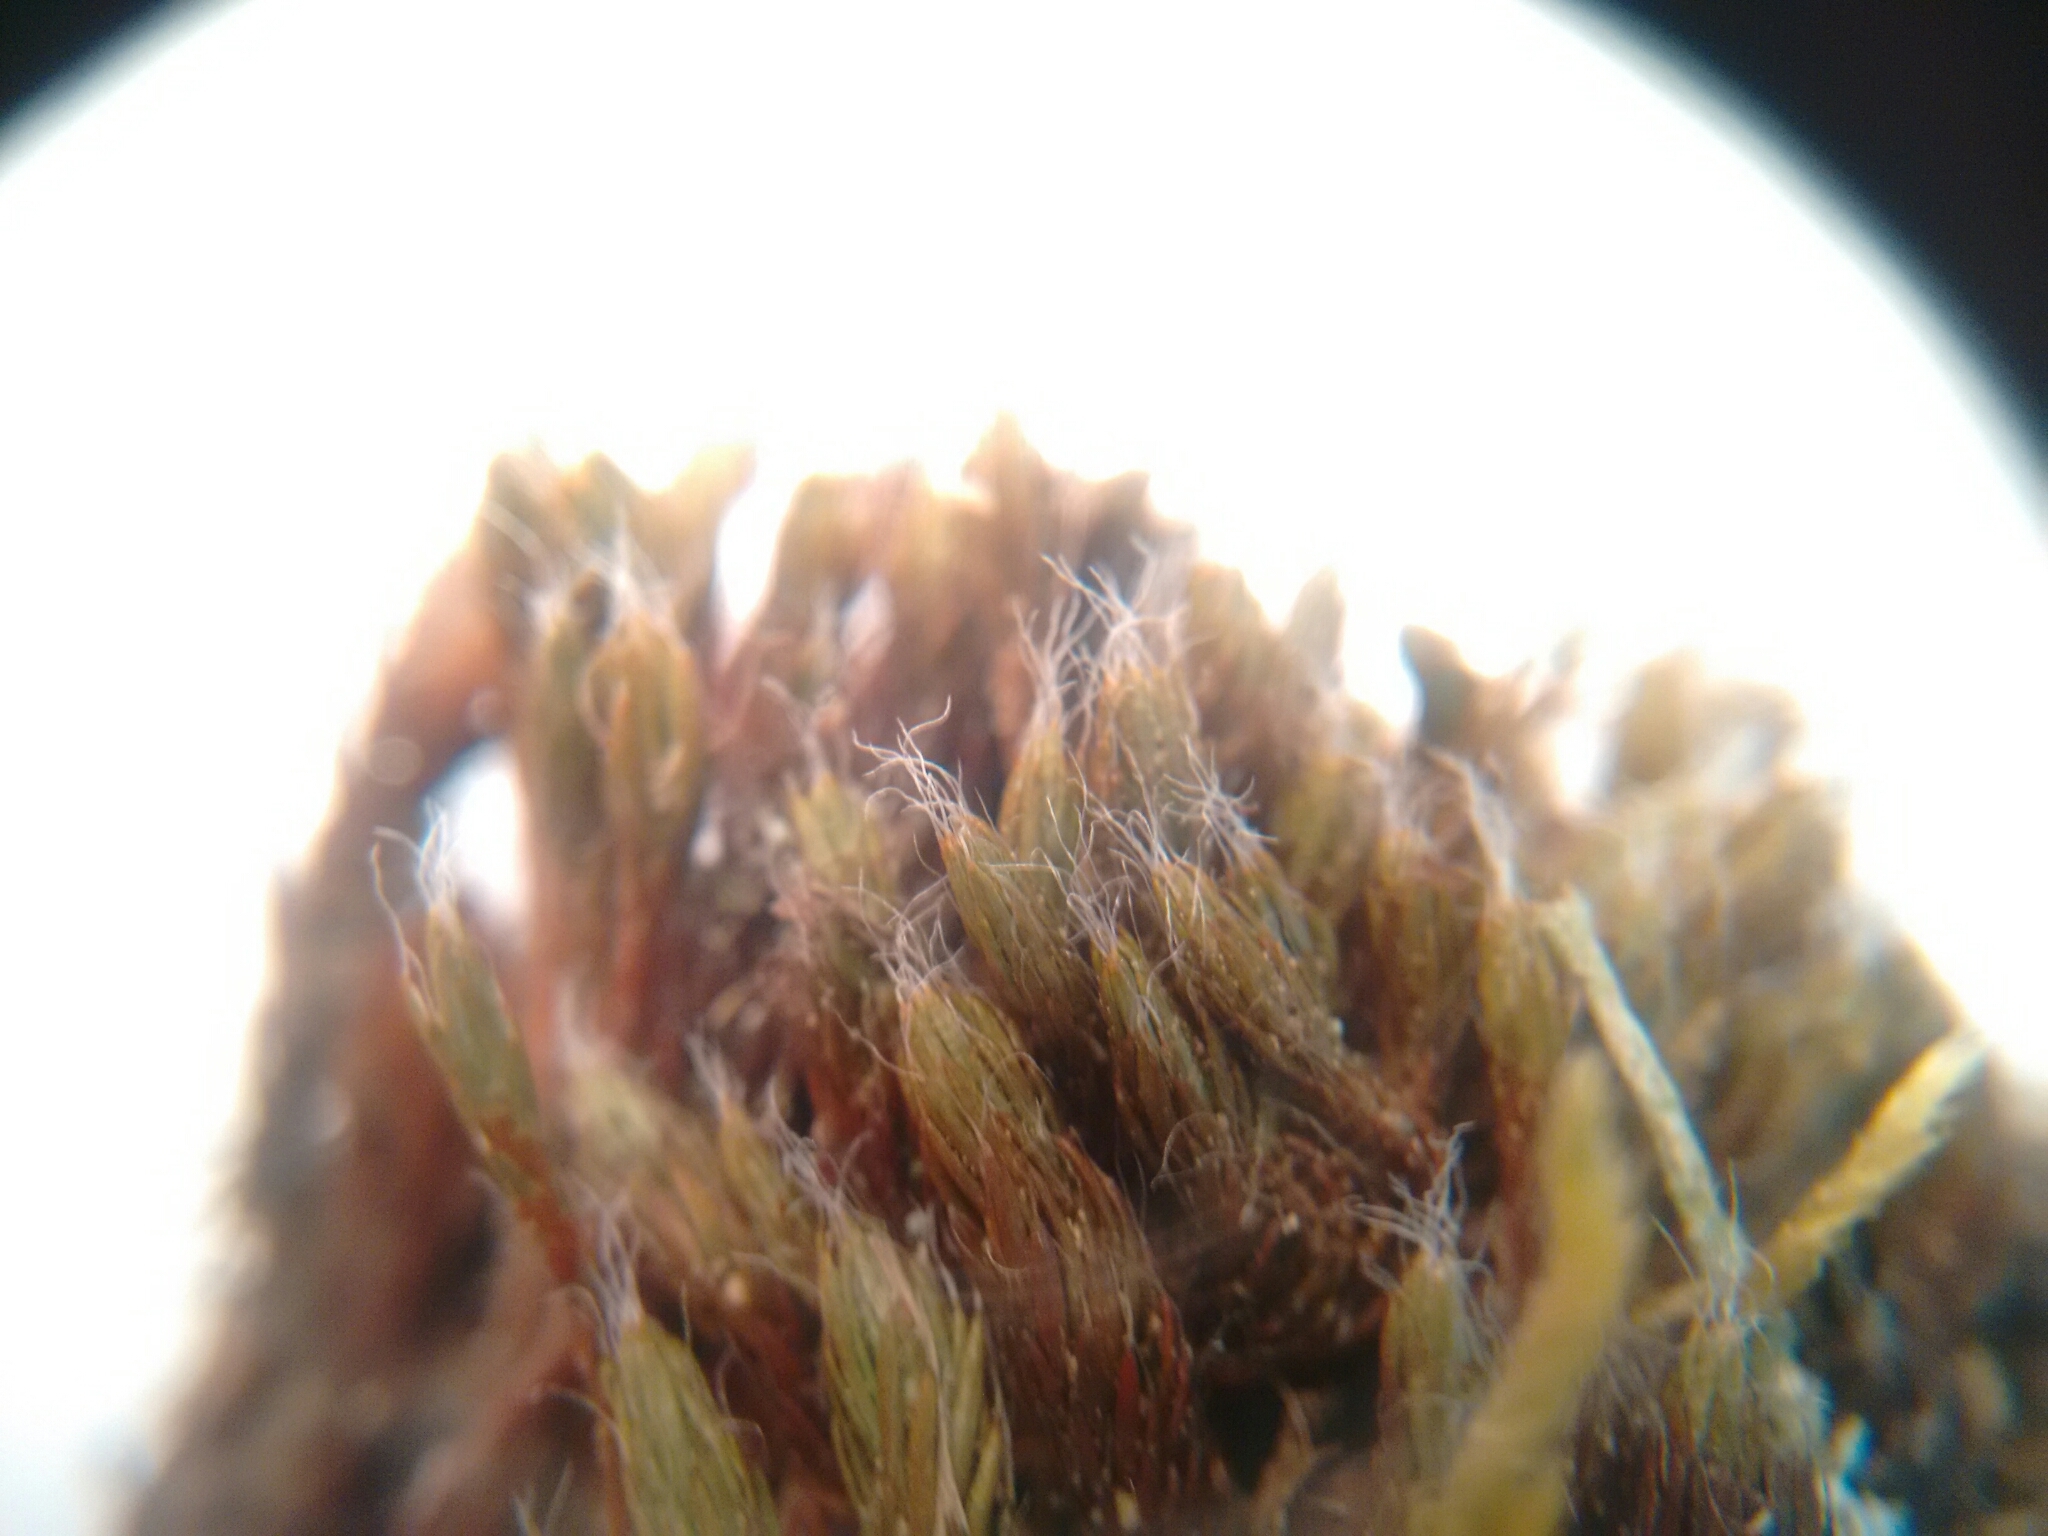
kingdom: Plantae
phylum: Bryophyta
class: Polytrichopsida
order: Polytrichales
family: Polytrichaceae
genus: Polytrichum
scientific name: Polytrichum piliferum
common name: Bristly haircap
